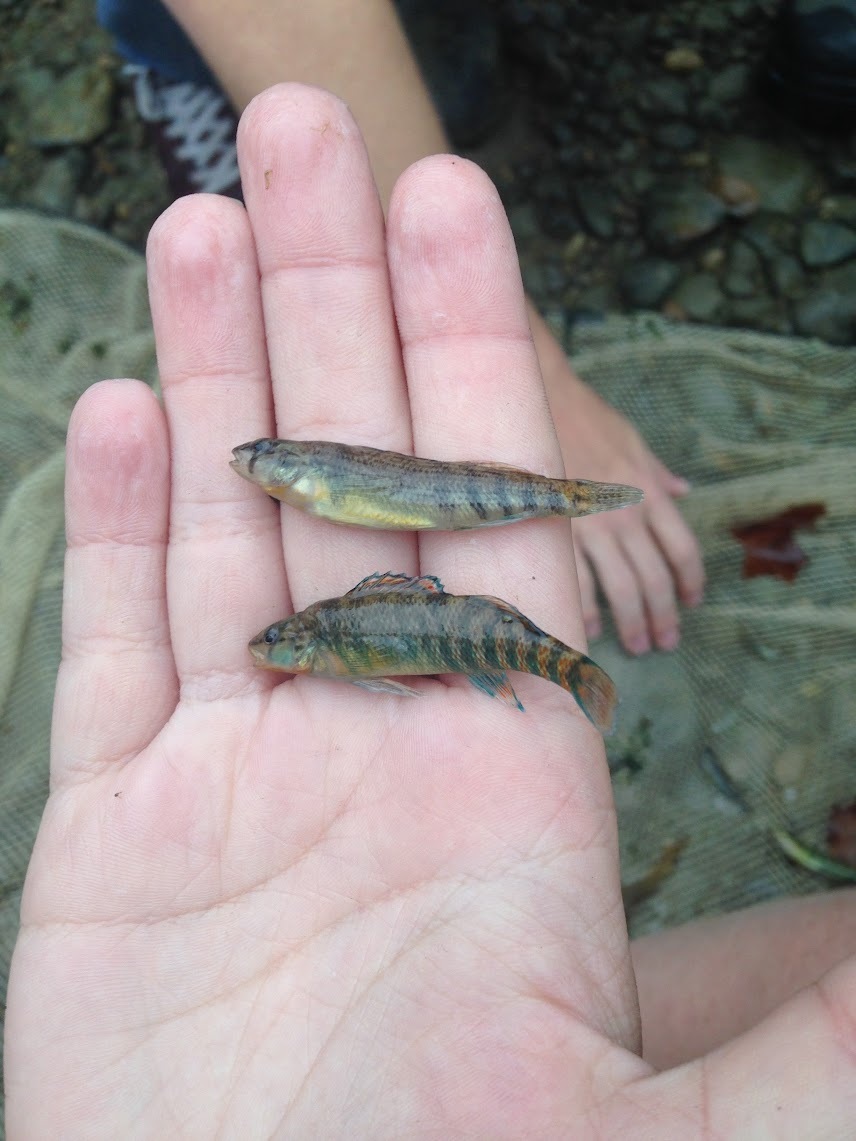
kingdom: Animalia
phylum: Chordata
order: Perciformes
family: Percidae
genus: Etheostoma
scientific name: Etheostoma caeruleum
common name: Rainbow darter
